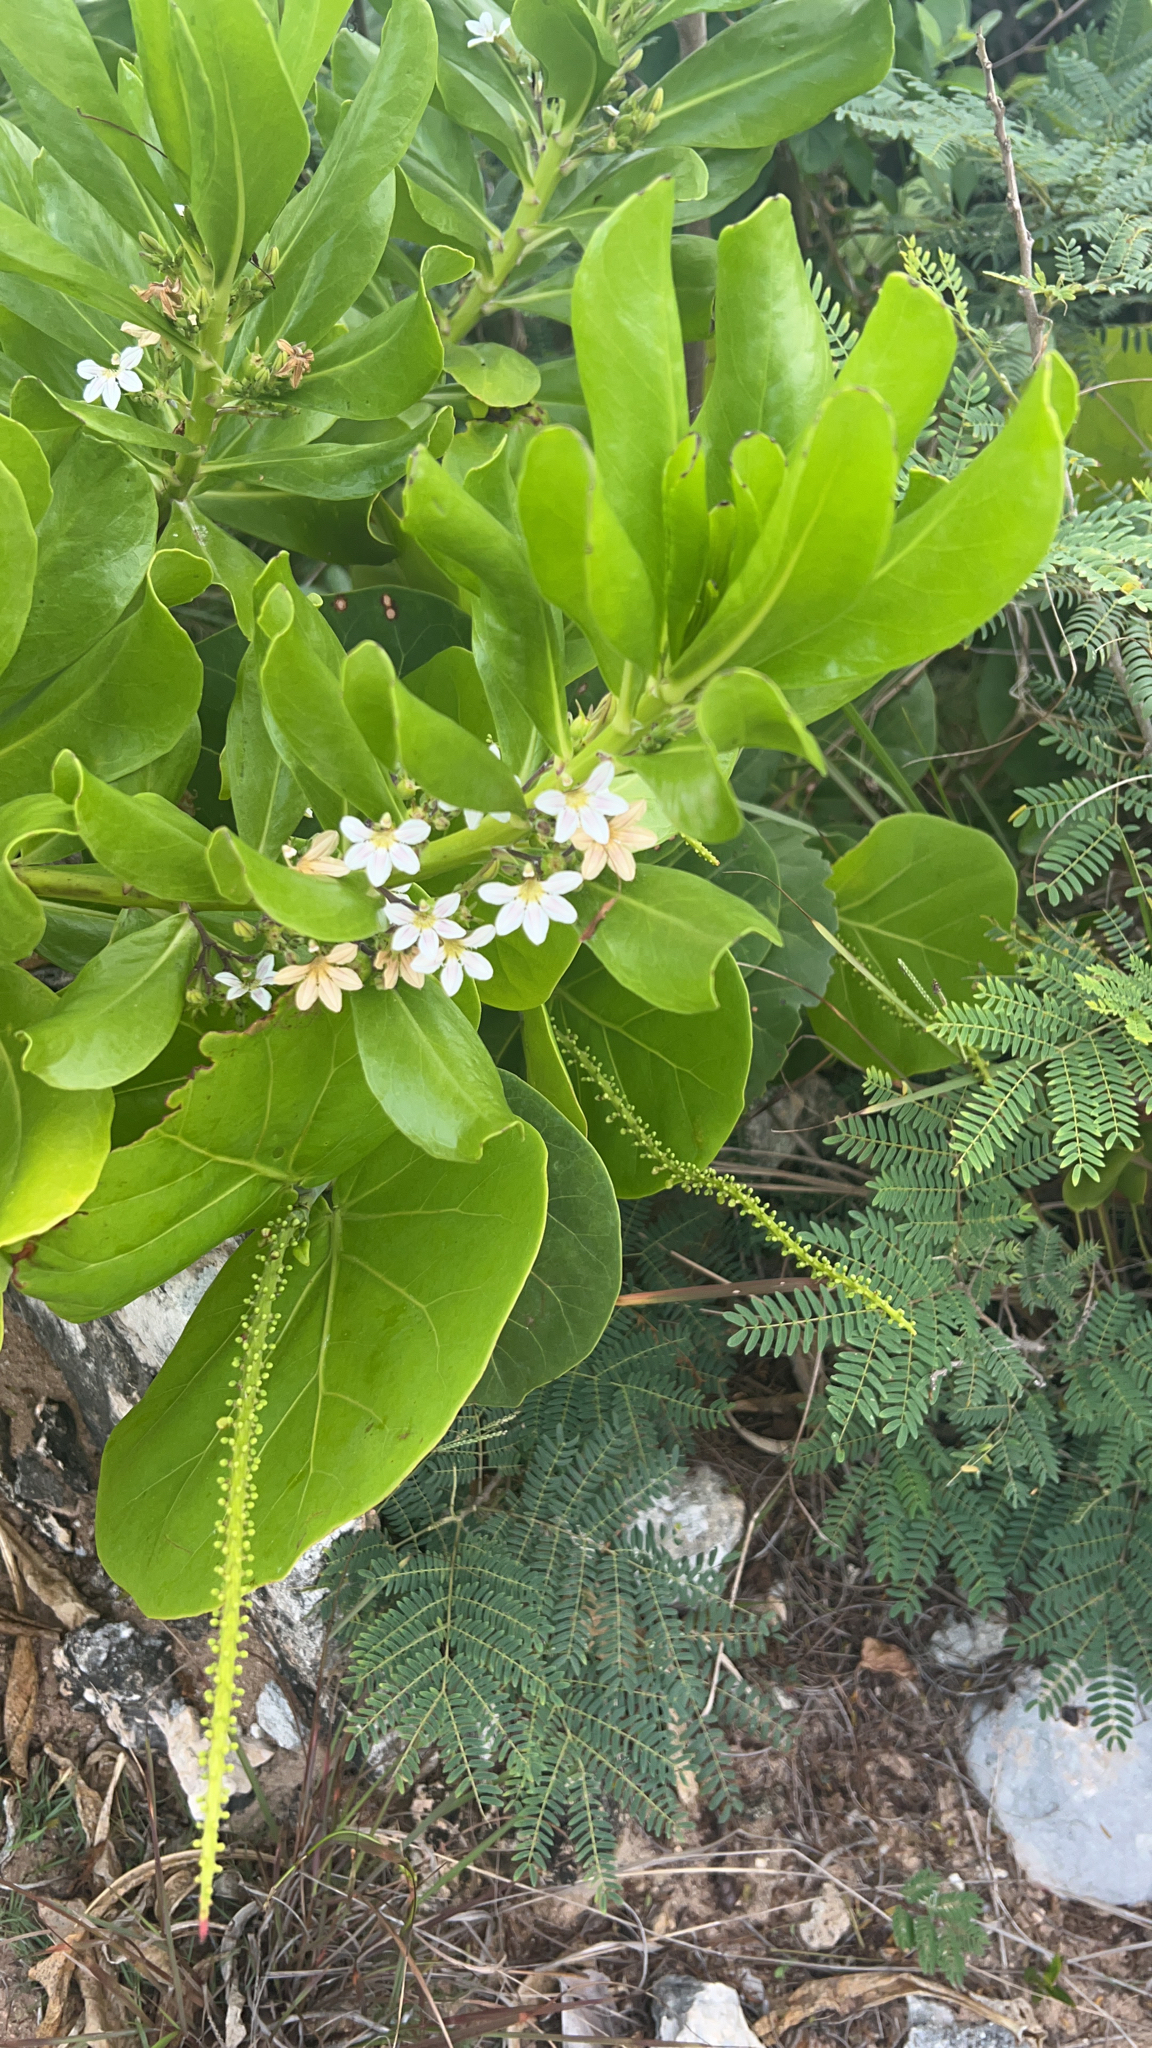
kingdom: Plantae
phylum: Tracheophyta
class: Magnoliopsida
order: Asterales
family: Goodeniaceae
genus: Scaevola
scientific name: Scaevola taccada
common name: Sea lettucetree
